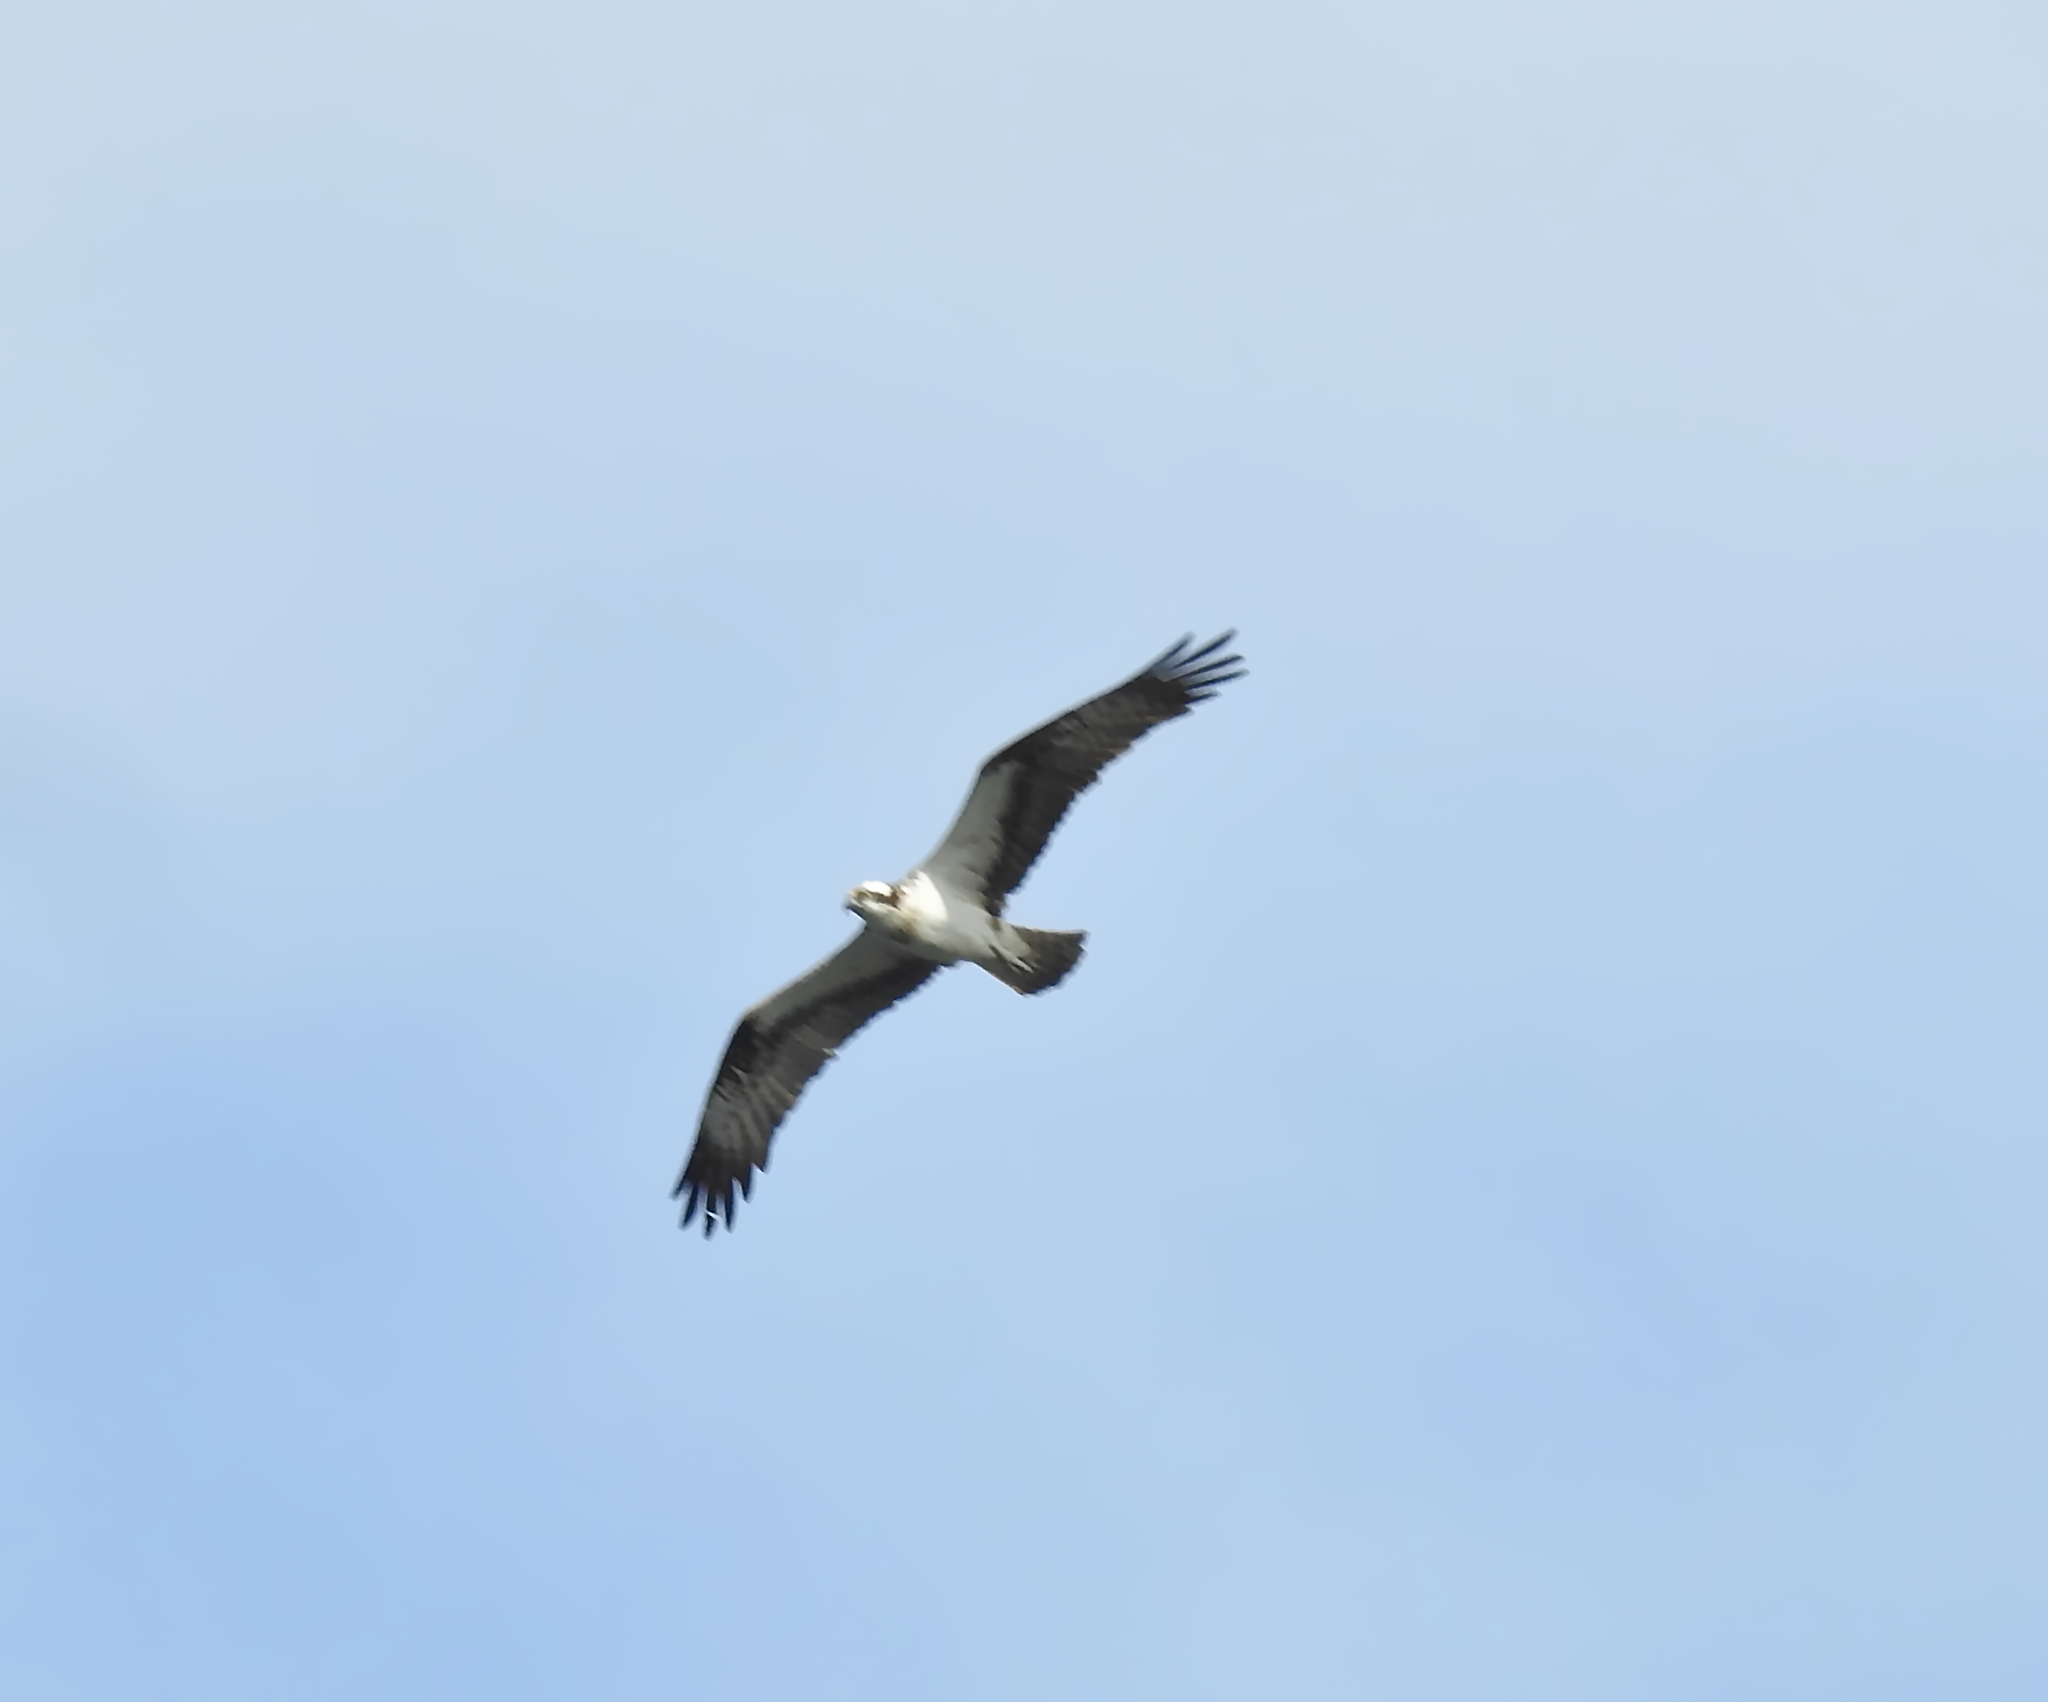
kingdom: Animalia
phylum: Chordata
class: Aves
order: Accipitriformes
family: Pandionidae
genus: Pandion
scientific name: Pandion haliaetus
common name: Osprey
